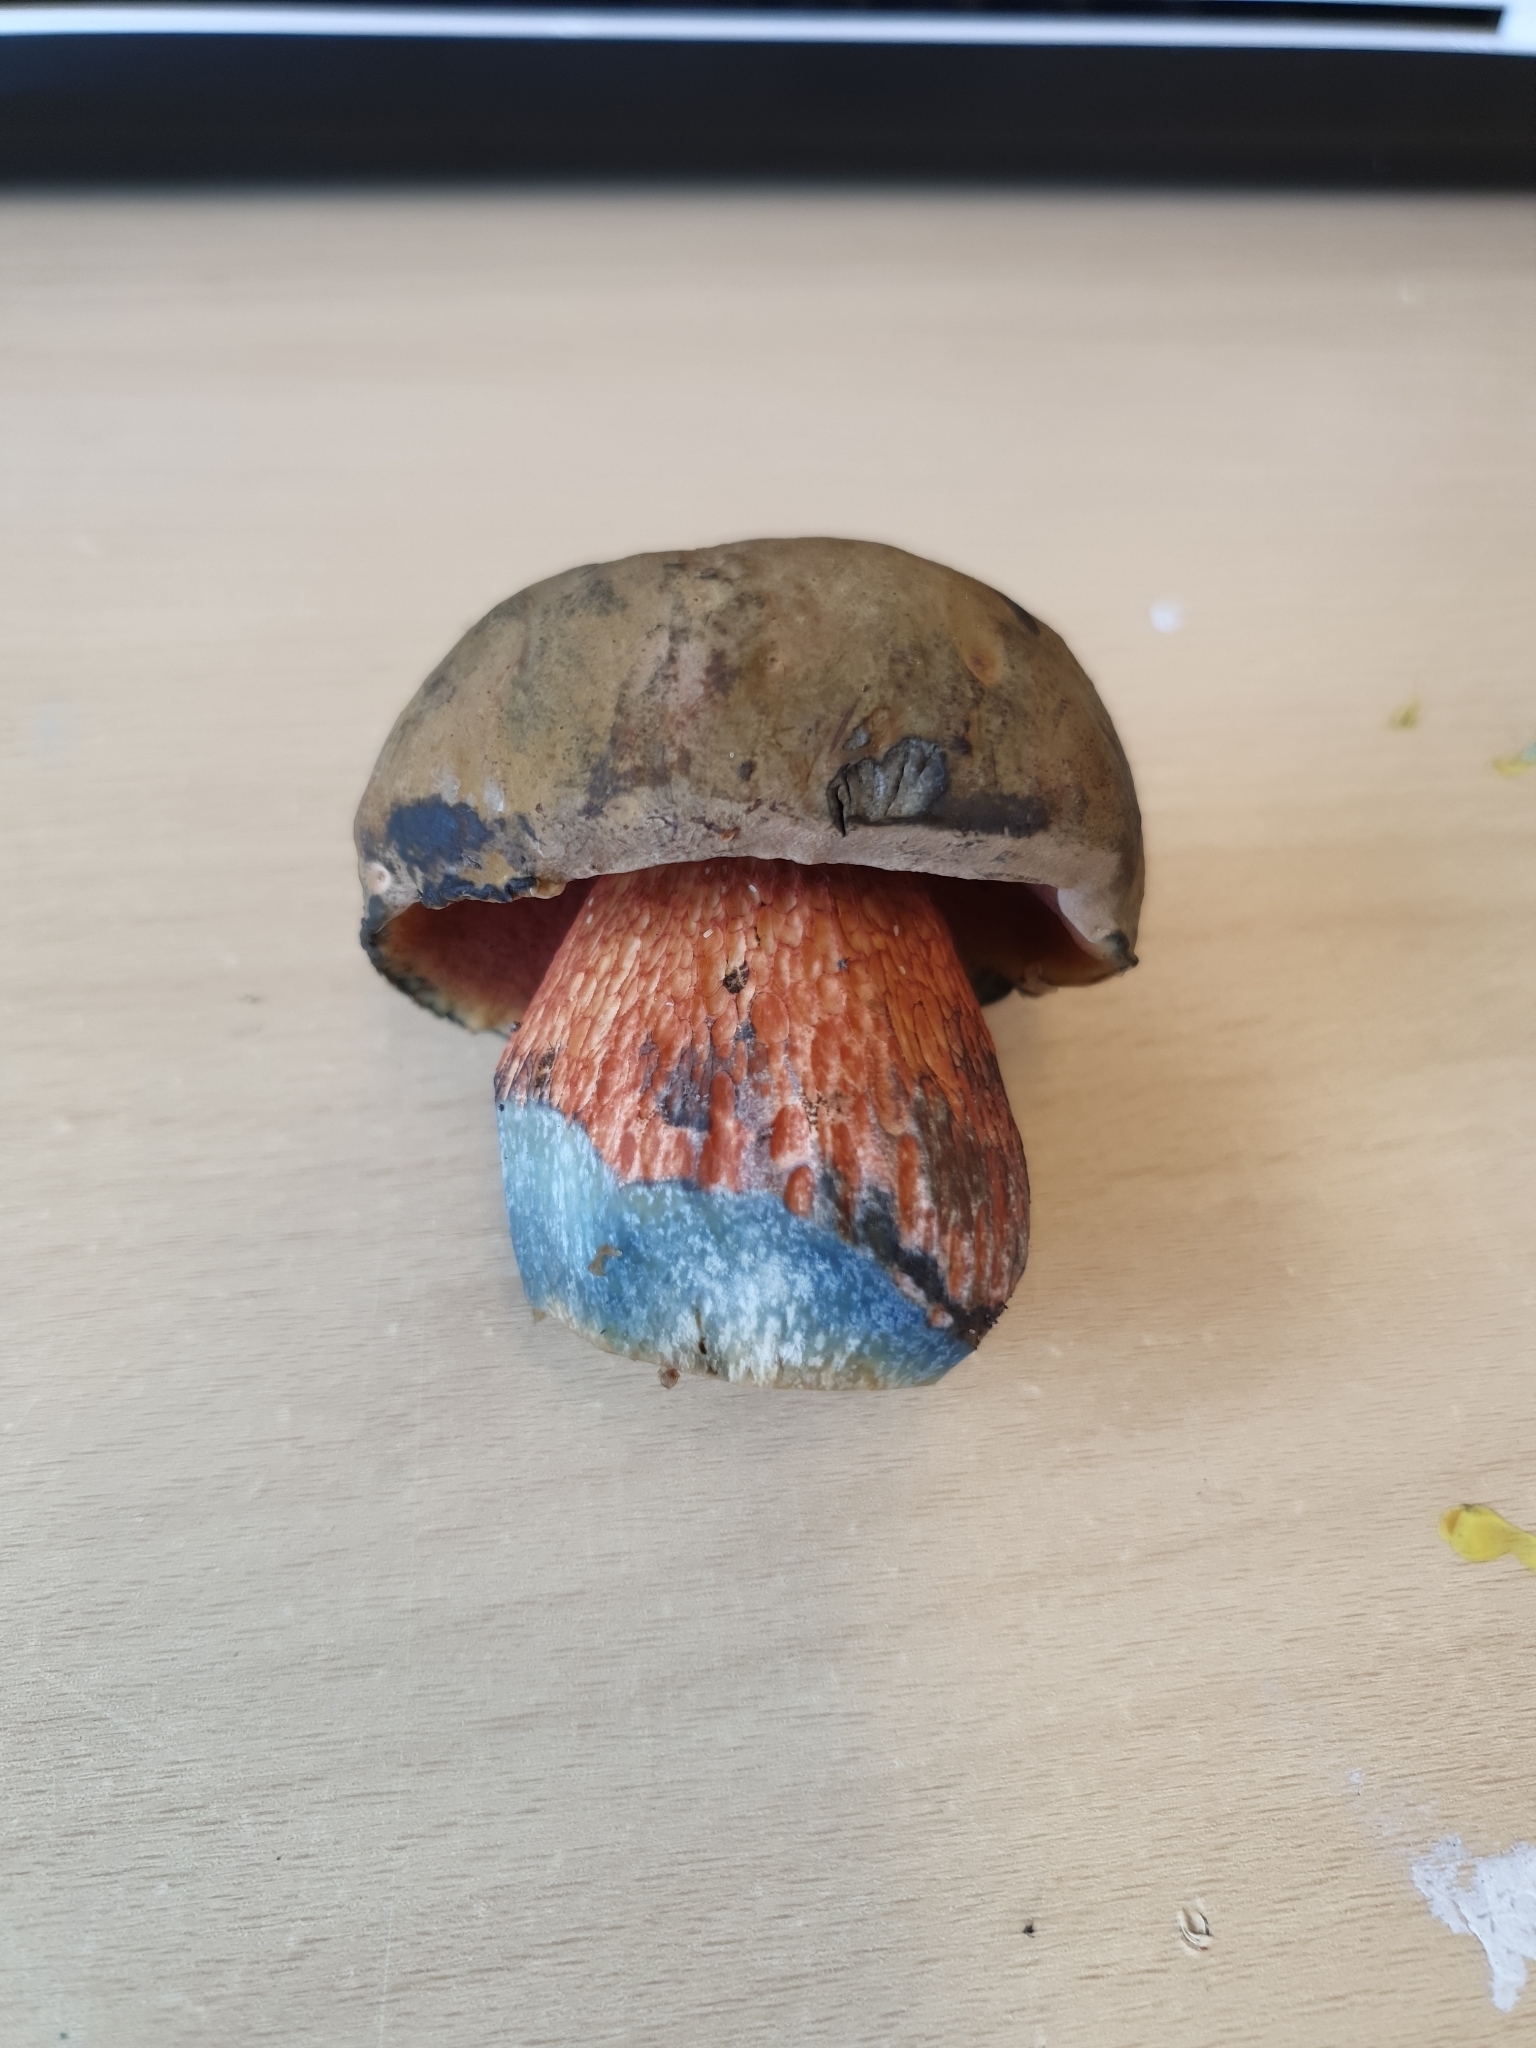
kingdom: Fungi
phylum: Basidiomycota
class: Agaricomycetes
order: Boletales
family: Boletaceae
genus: Suillellus
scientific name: Suillellus luridus
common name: Lurid bolete
